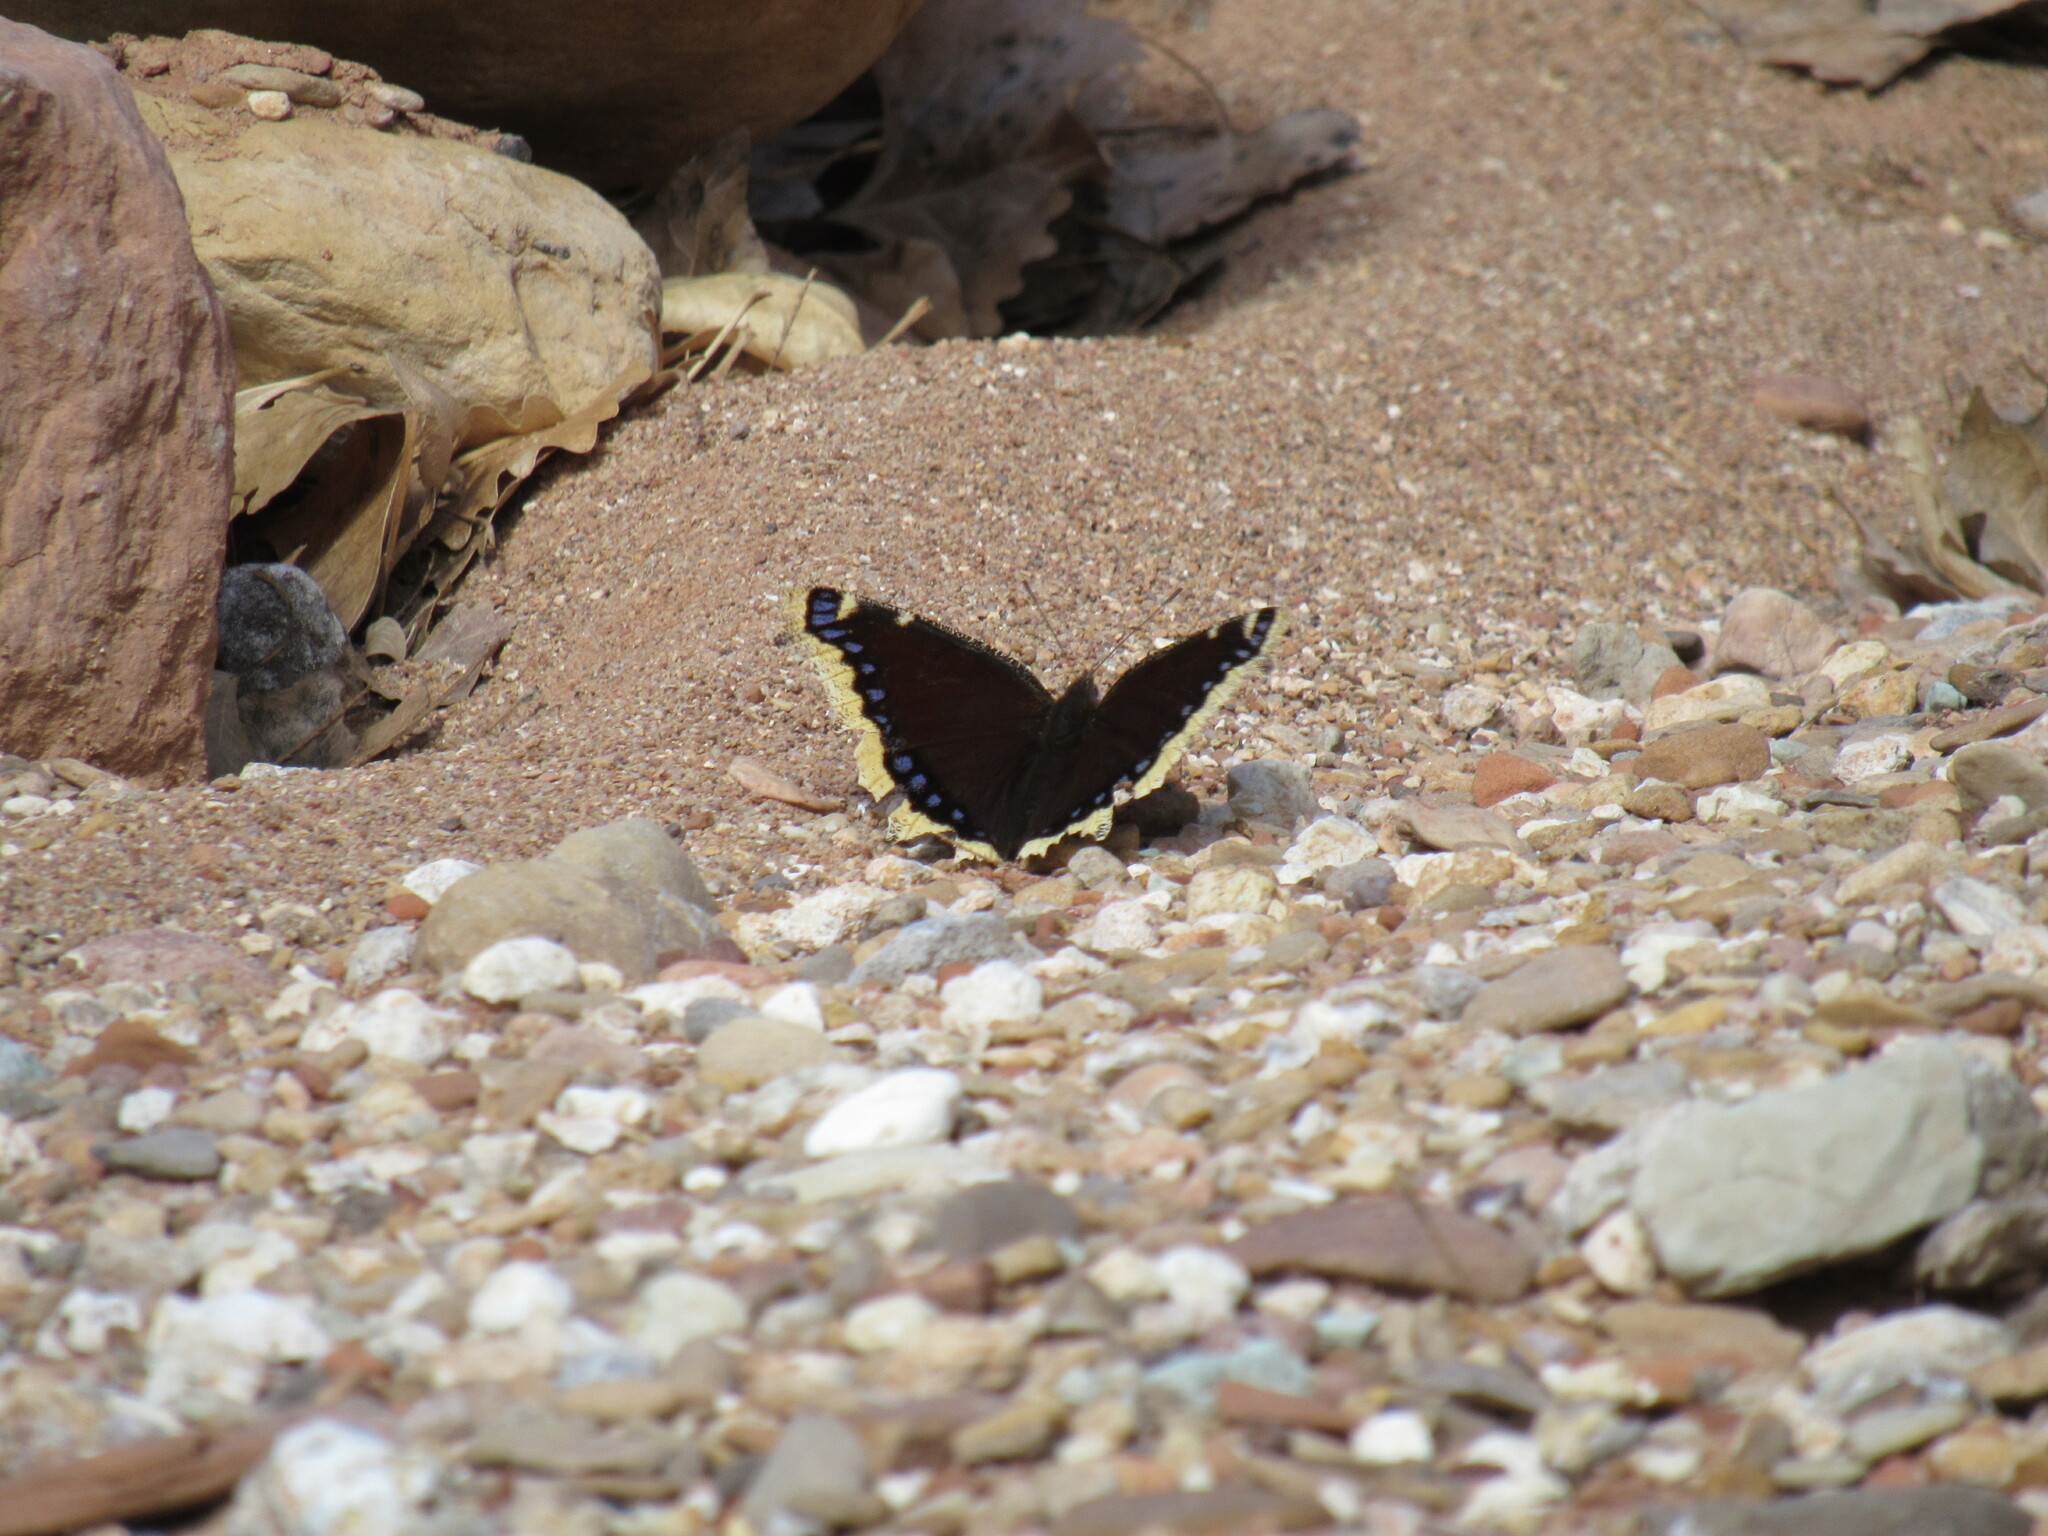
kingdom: Animalia
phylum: Arthropoda
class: Insecta
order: Lepidoptera
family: Nymphalidae
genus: Nymphalis
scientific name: Nymphalis antiopa
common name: Camberwell beauty
